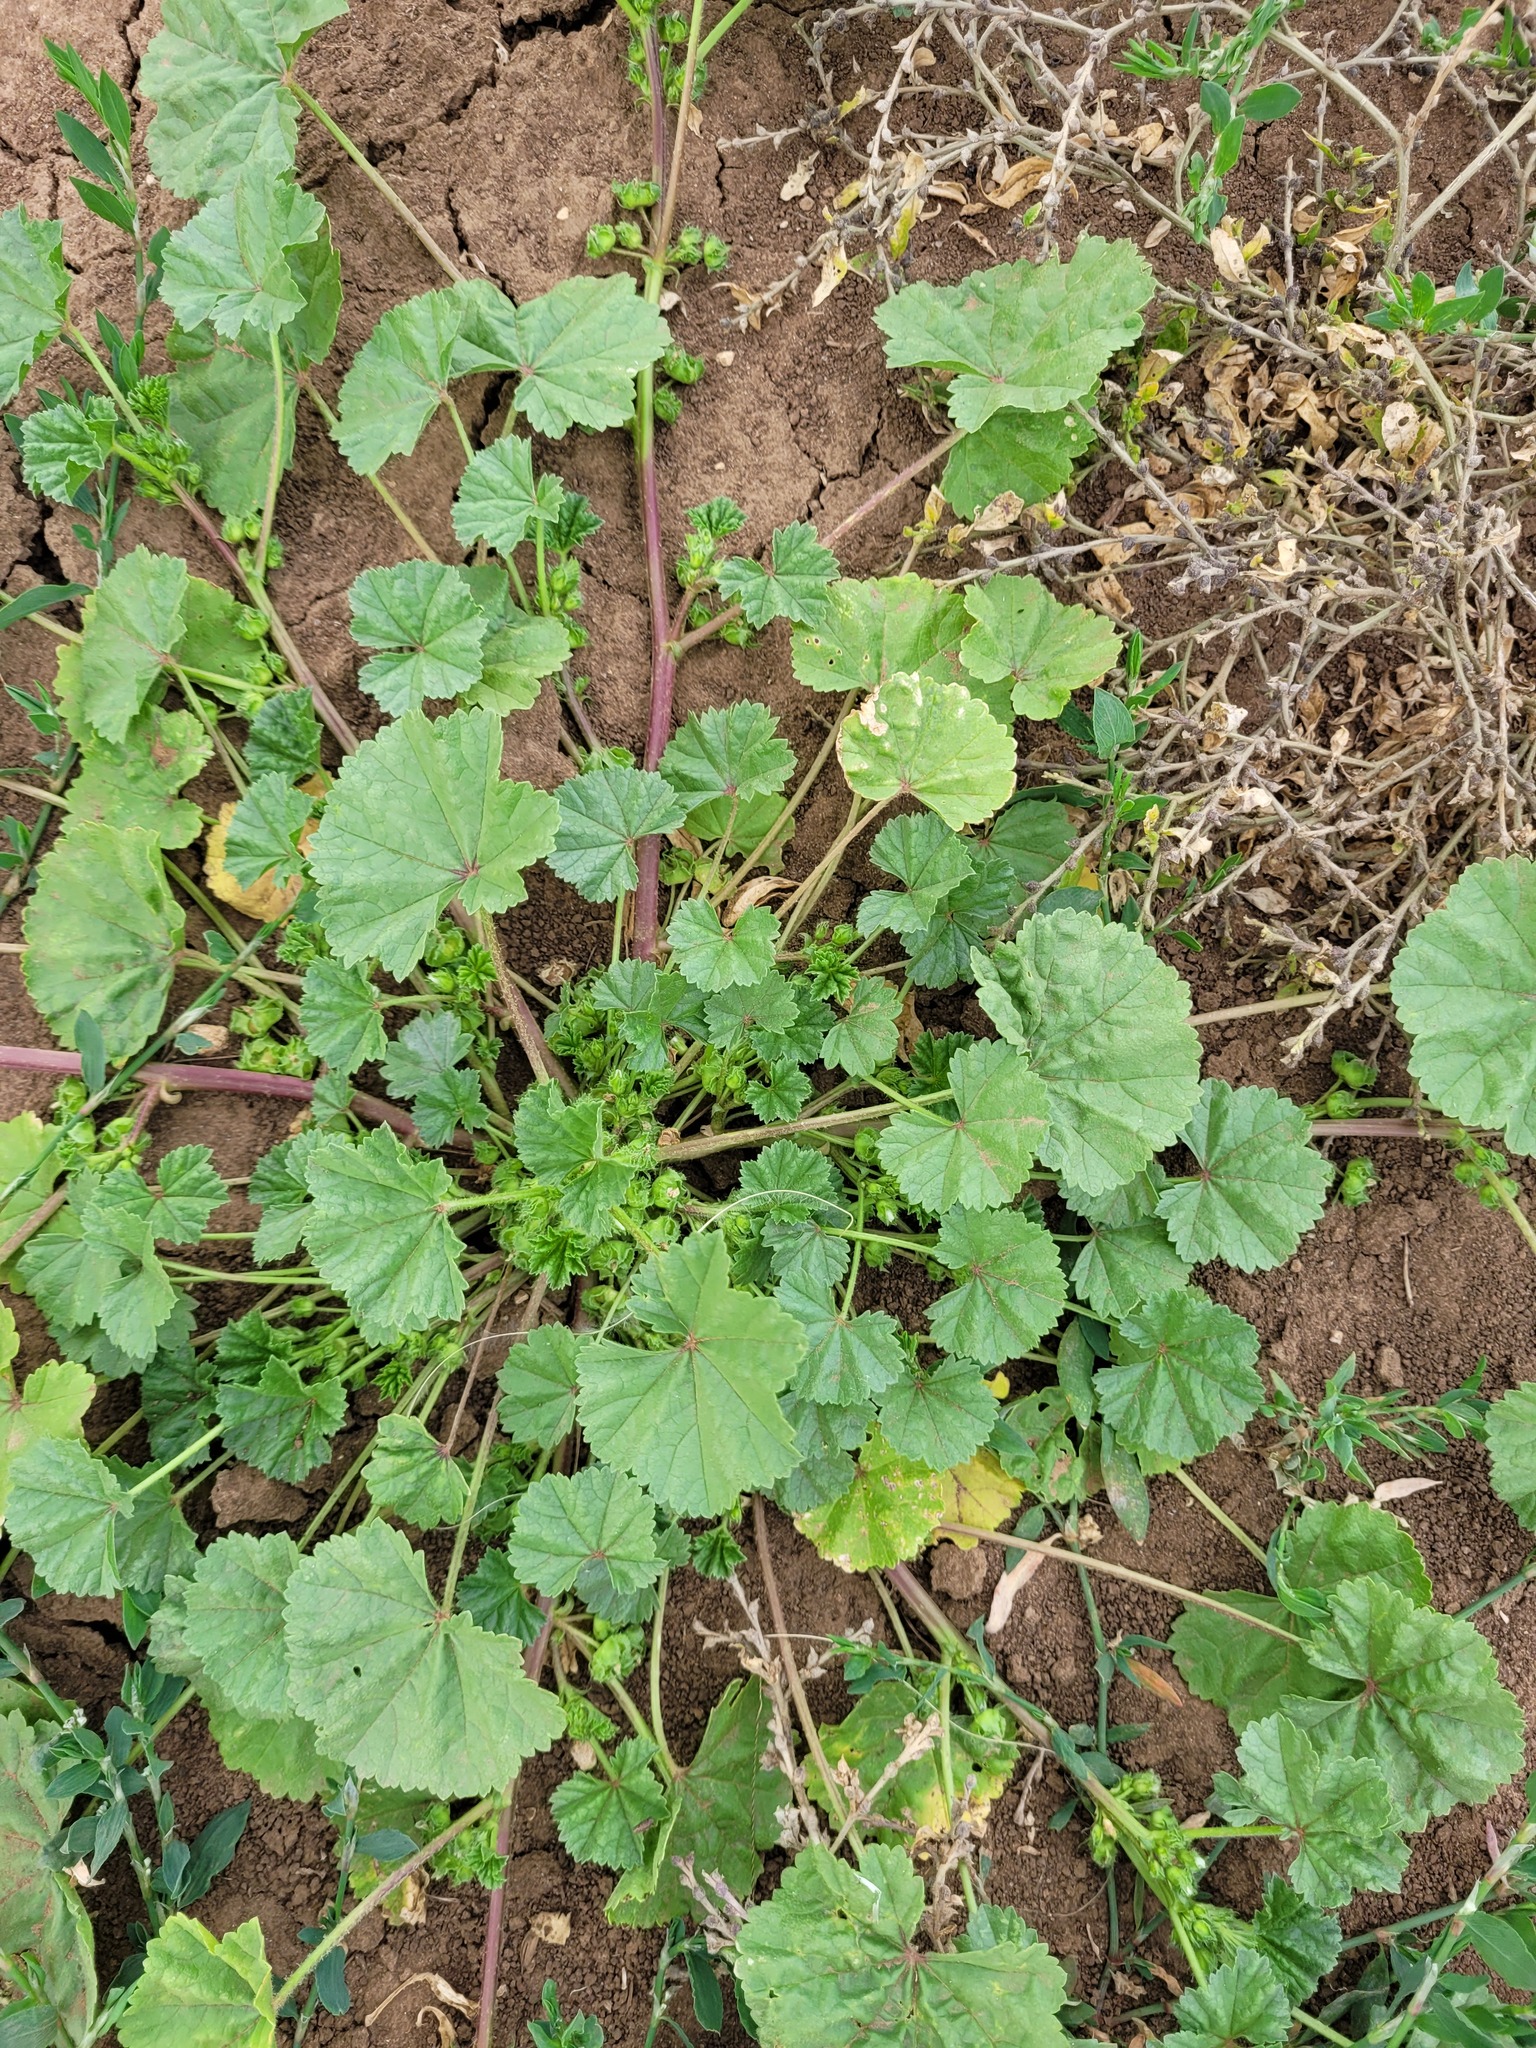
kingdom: Plantae
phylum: Tracheophyta
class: Magnoliopsida
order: Malvales
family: Malvaceae
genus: Malva
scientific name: Malva pusilla
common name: Small mallow
